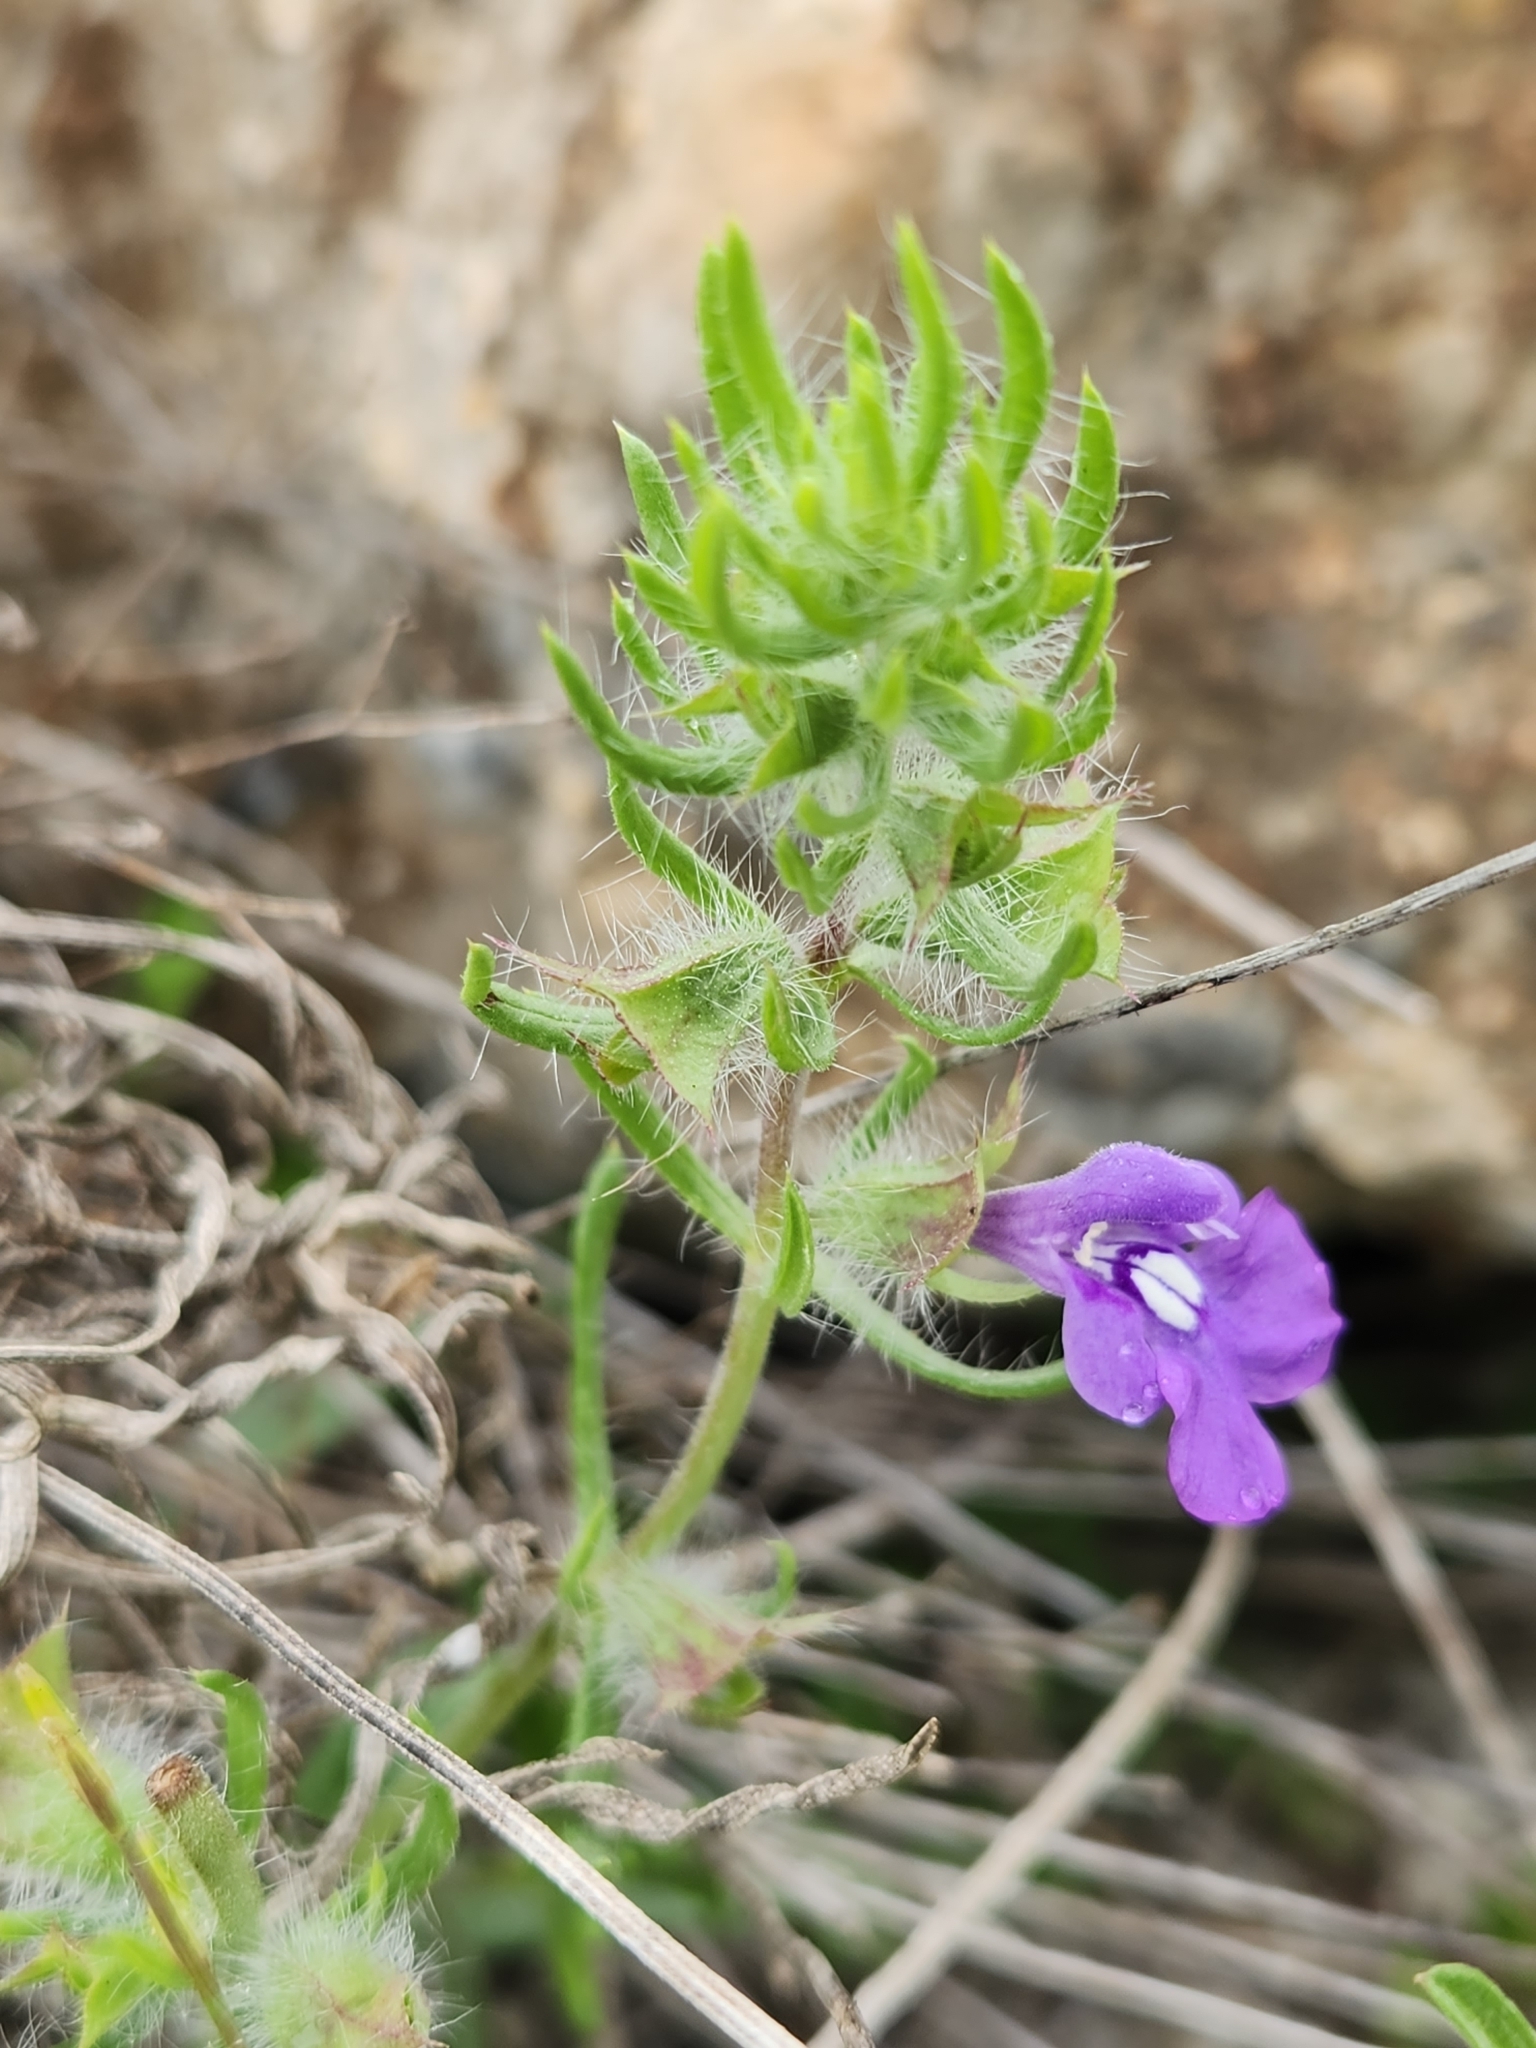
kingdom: Plantae
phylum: Tracheophyta
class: Magnoliopsida
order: Lamiales
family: Lamiaceae
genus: Salvia
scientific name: Salvia texana
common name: Texas sage
